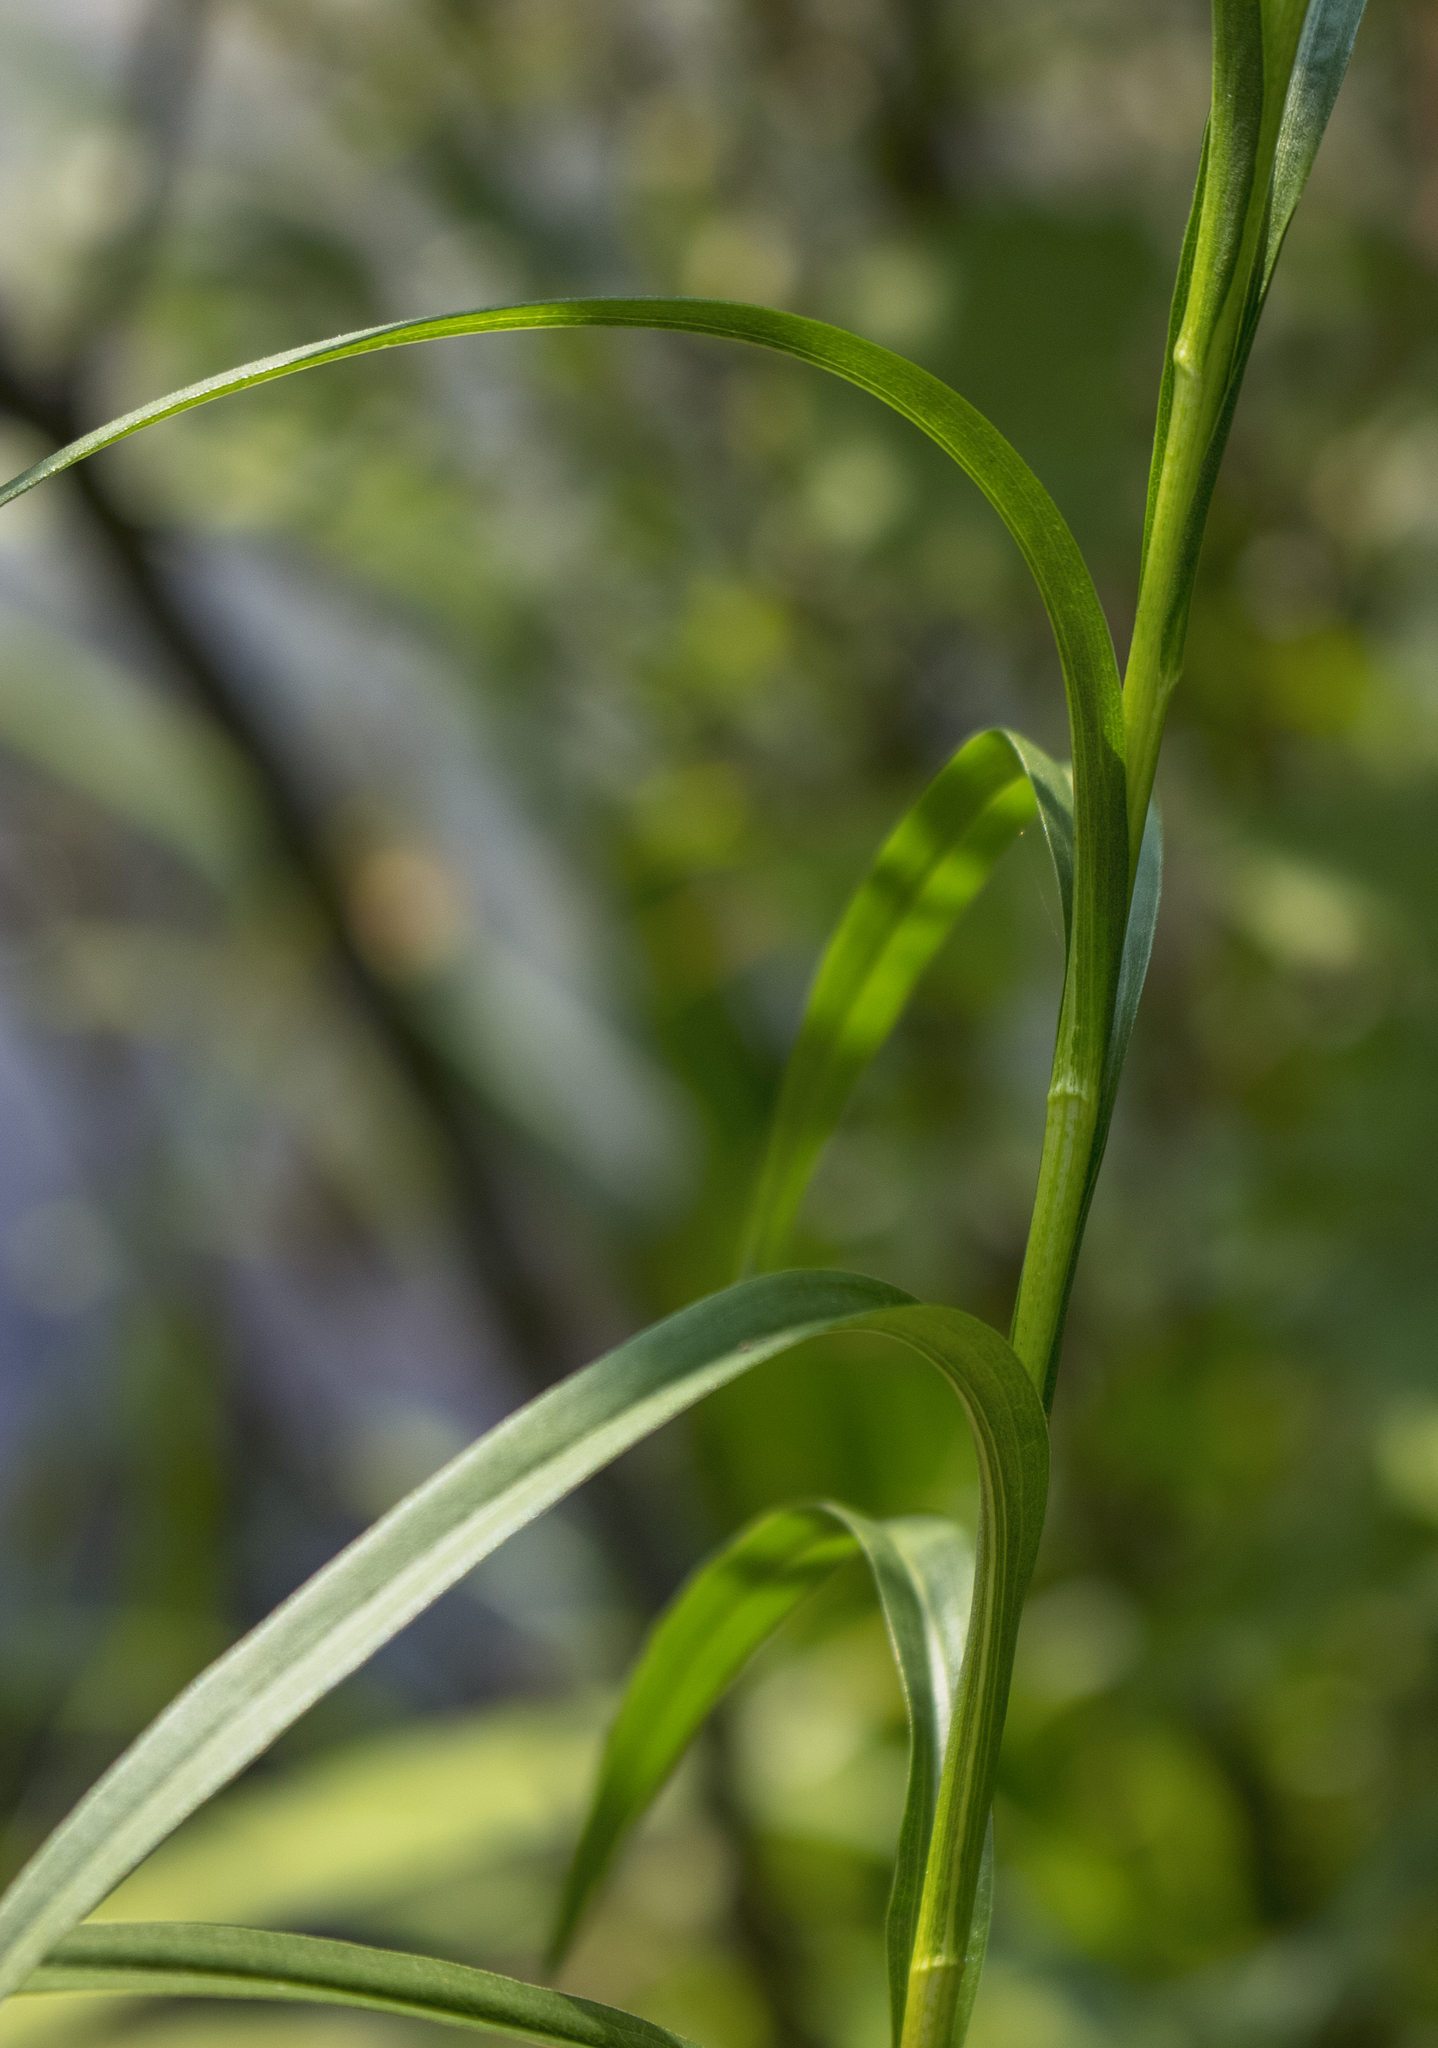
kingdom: Plantae
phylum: Tracheophyta
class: Magnoliopsida
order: Asterales
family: Asteraceae
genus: Solidago
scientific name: Solidago riddellii
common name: Riddell's goldenrod
